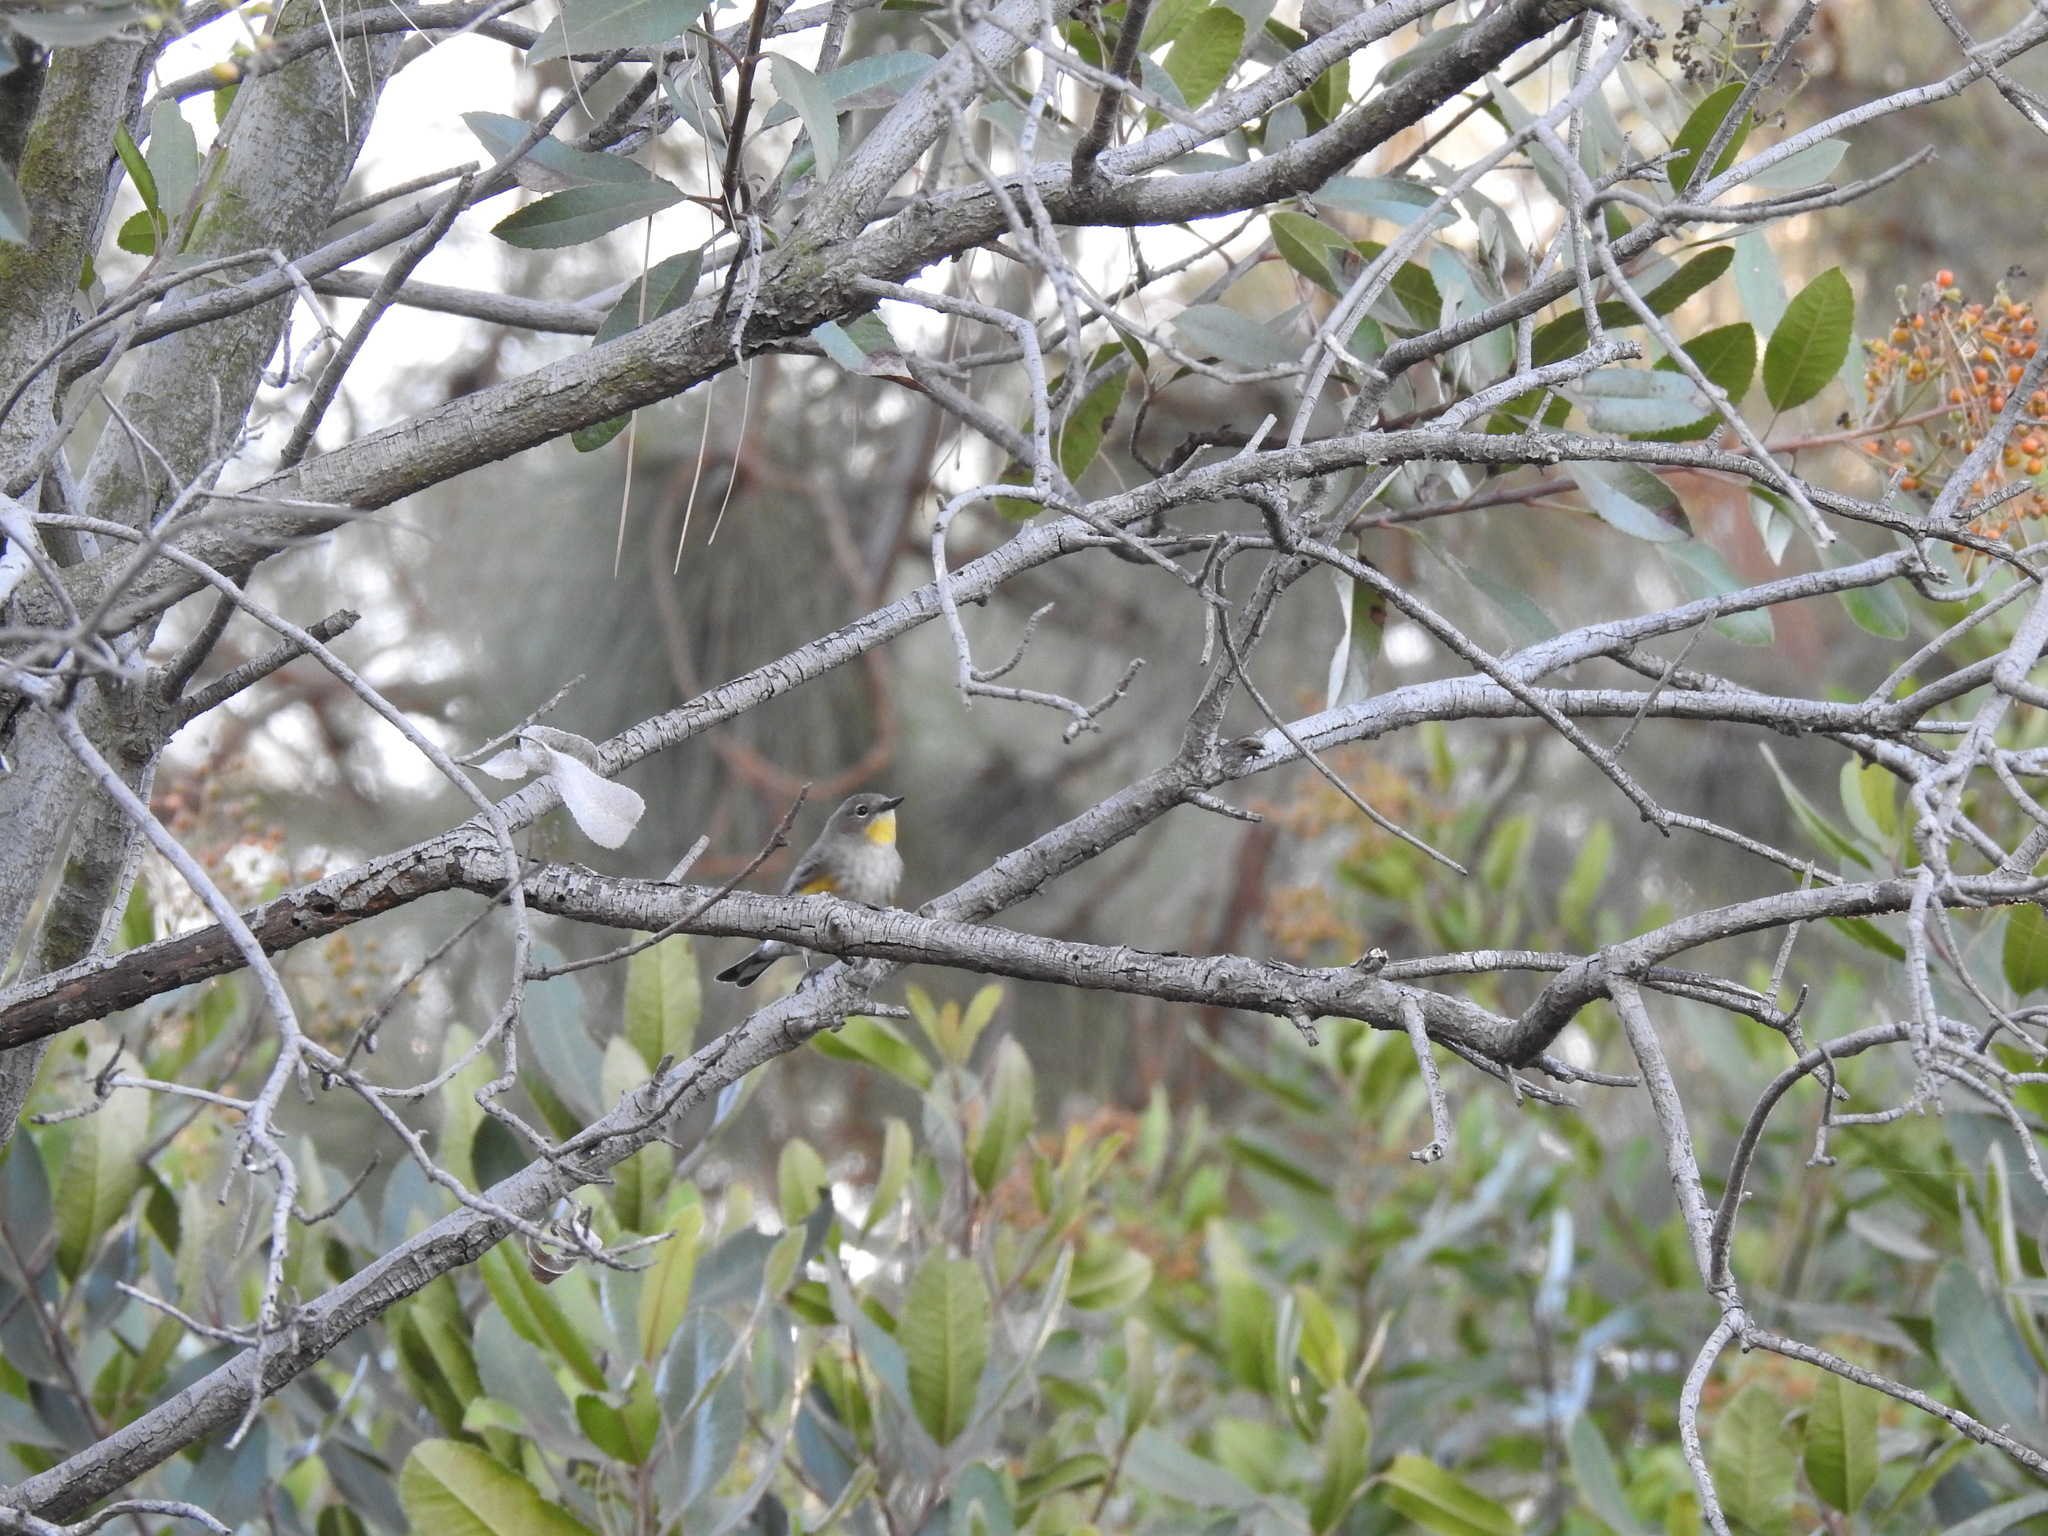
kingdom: Animalia
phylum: Chordata
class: Aves
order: Passeriformes
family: Parulidae
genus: Setophaga
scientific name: Setophaga auduboni
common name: Audubon's warbler
